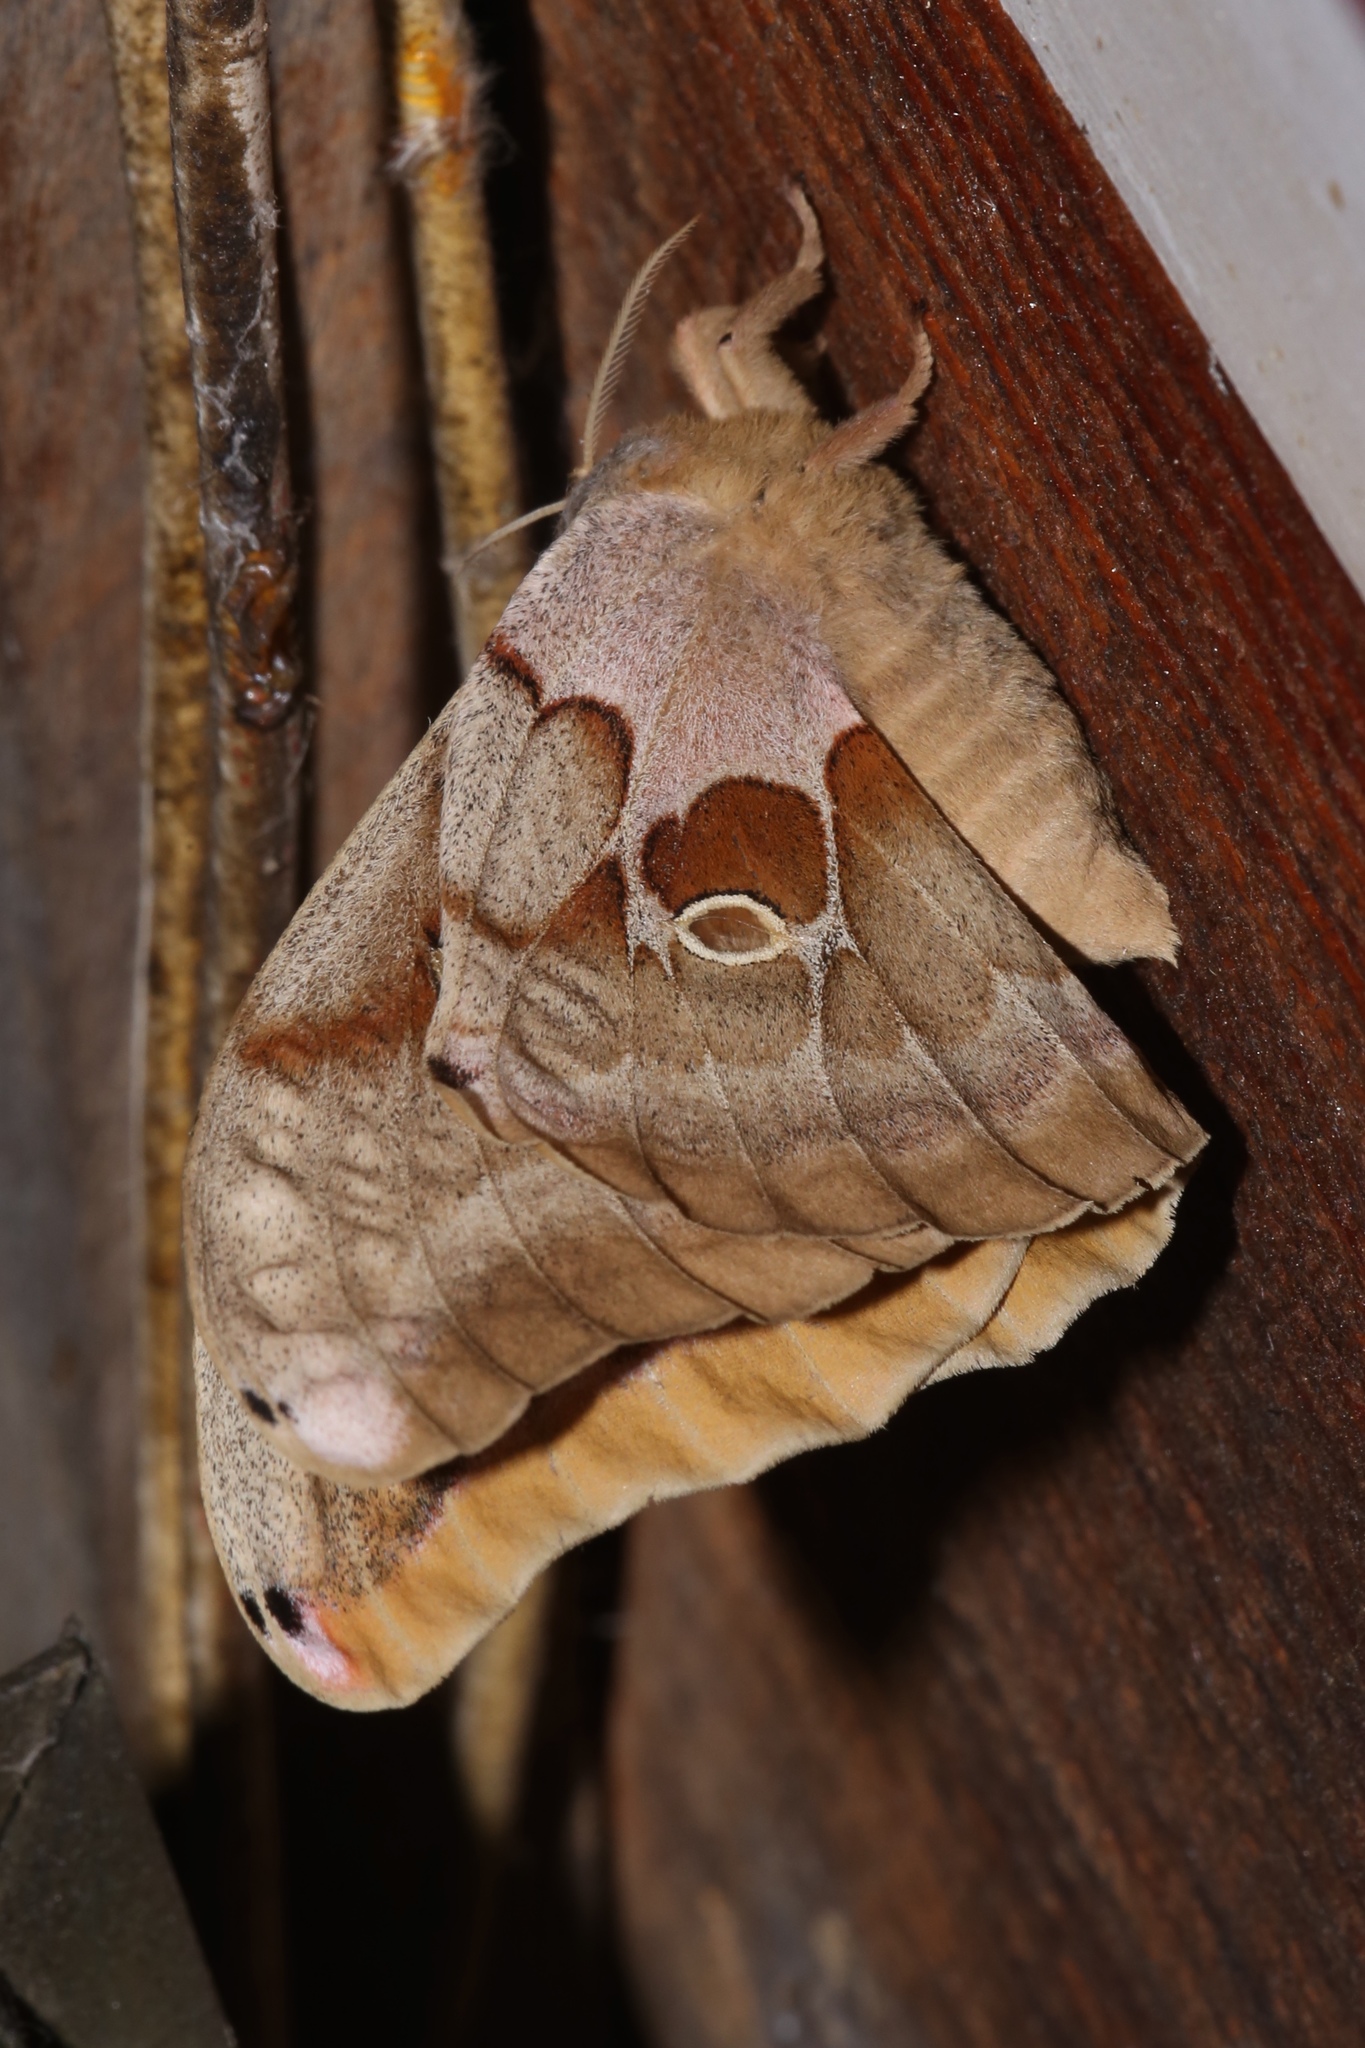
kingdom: Animalia
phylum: Arthropoda
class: Insecta
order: Lepidoptera
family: Saturniidae
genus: Antheraea
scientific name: Antheraea polyphemus
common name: Polyphemus moth
